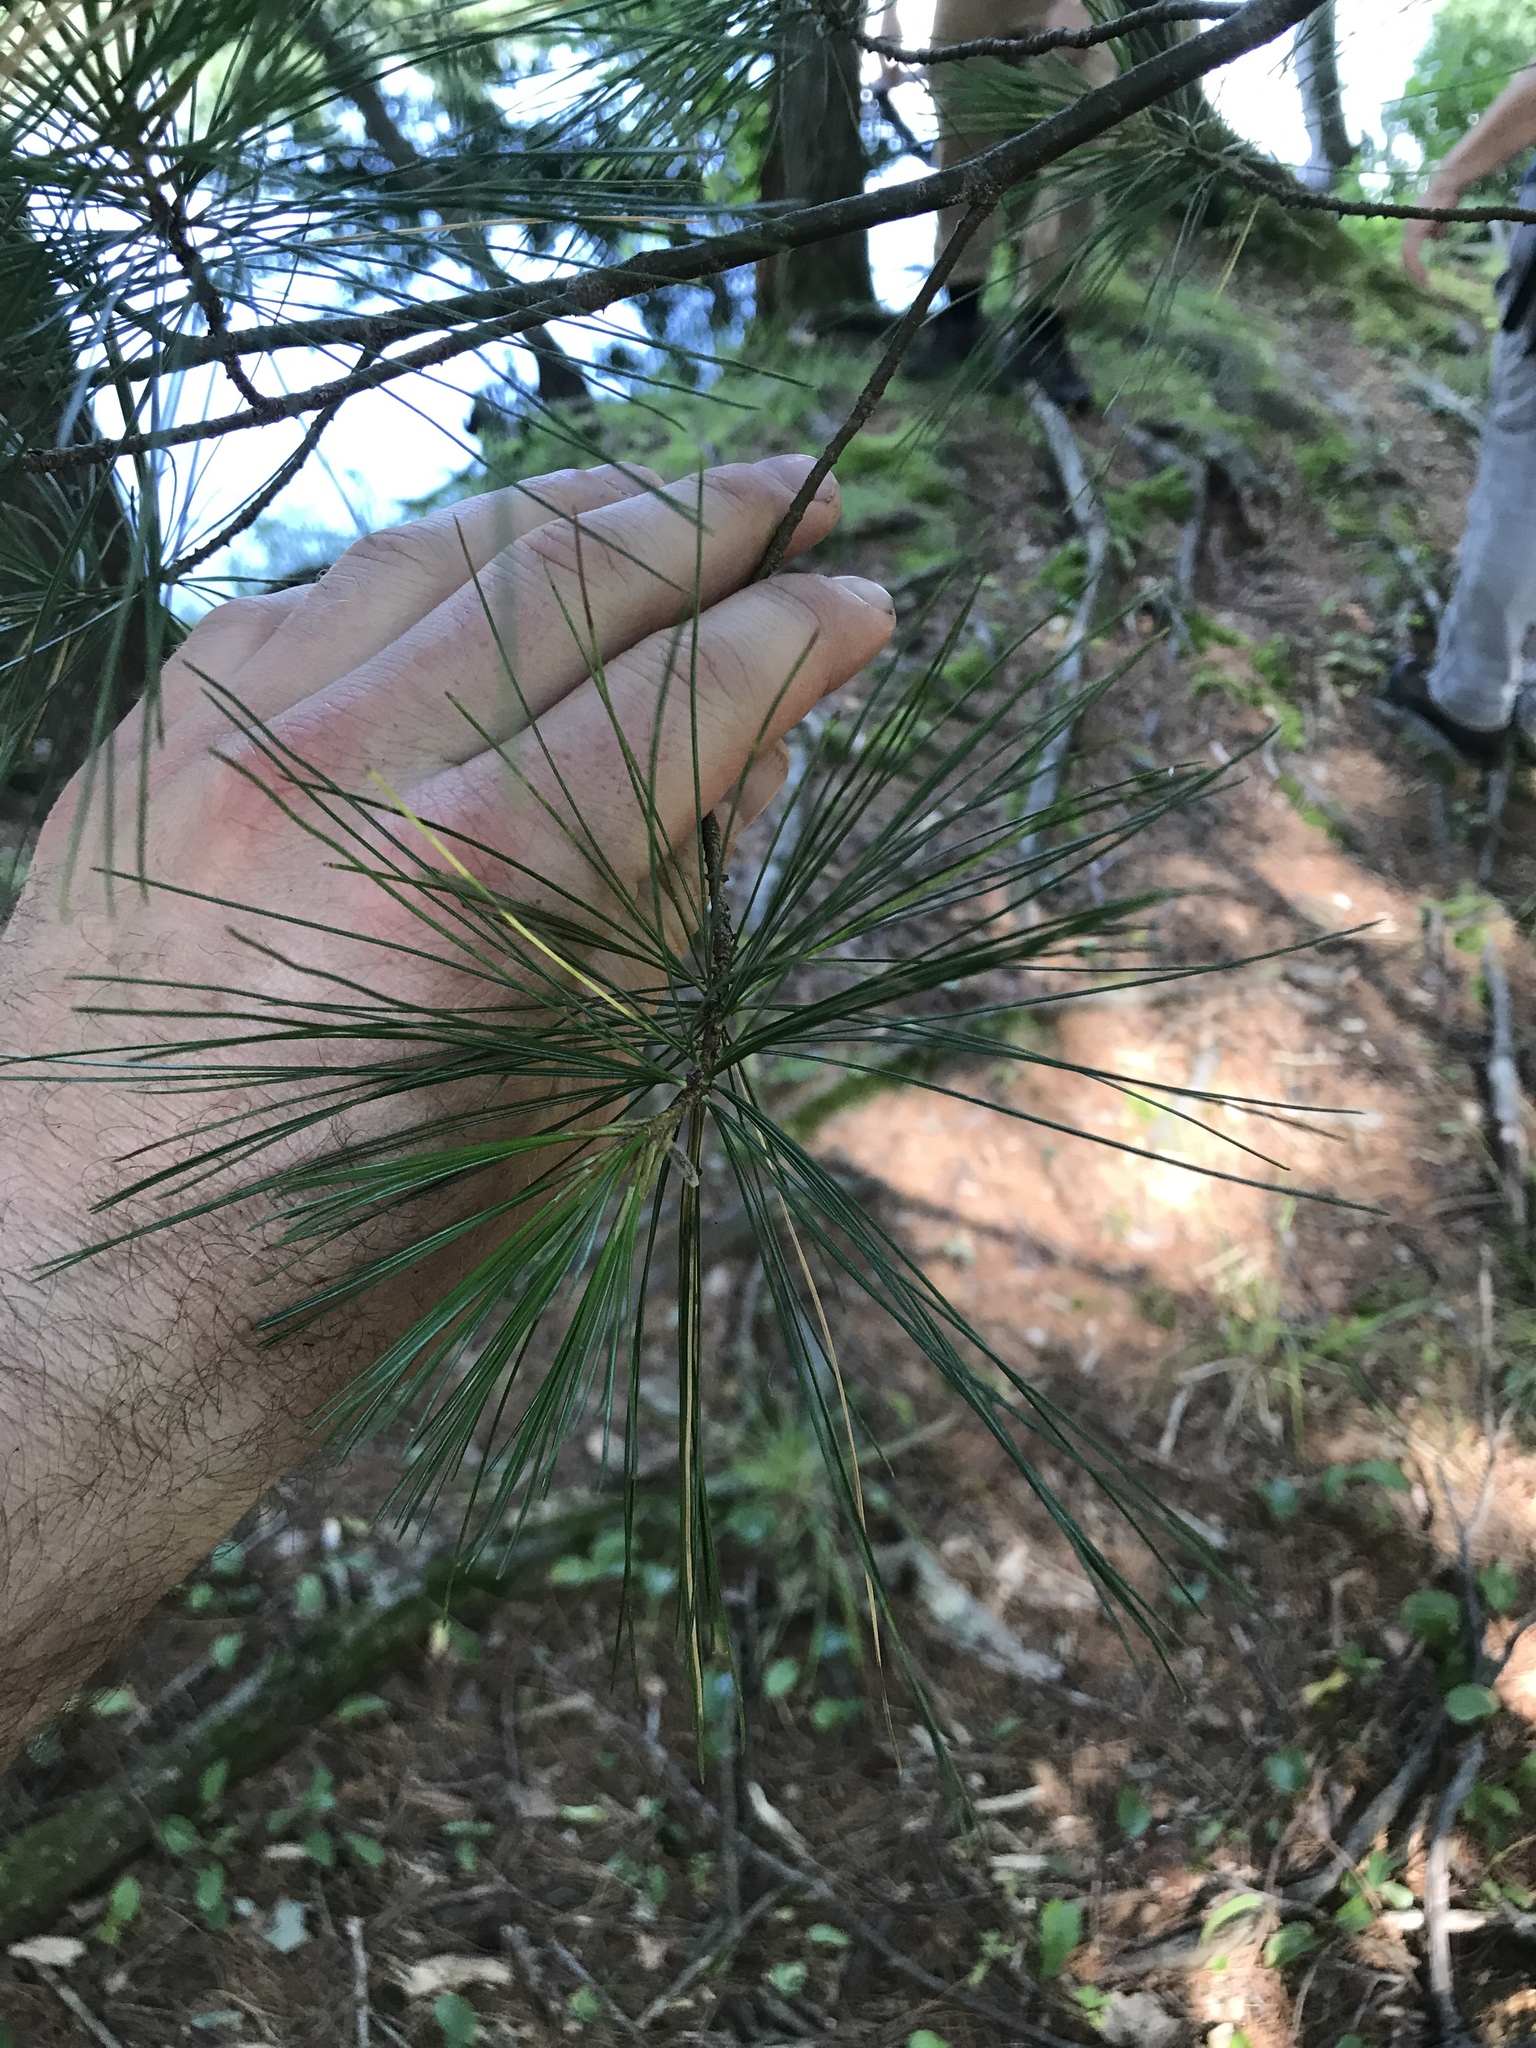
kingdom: Plantae
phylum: Tracheophyta
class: Pinopsida
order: Pinales
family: Pinaceae
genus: Pinus
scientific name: Pinus strobus
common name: Weymouth pine
